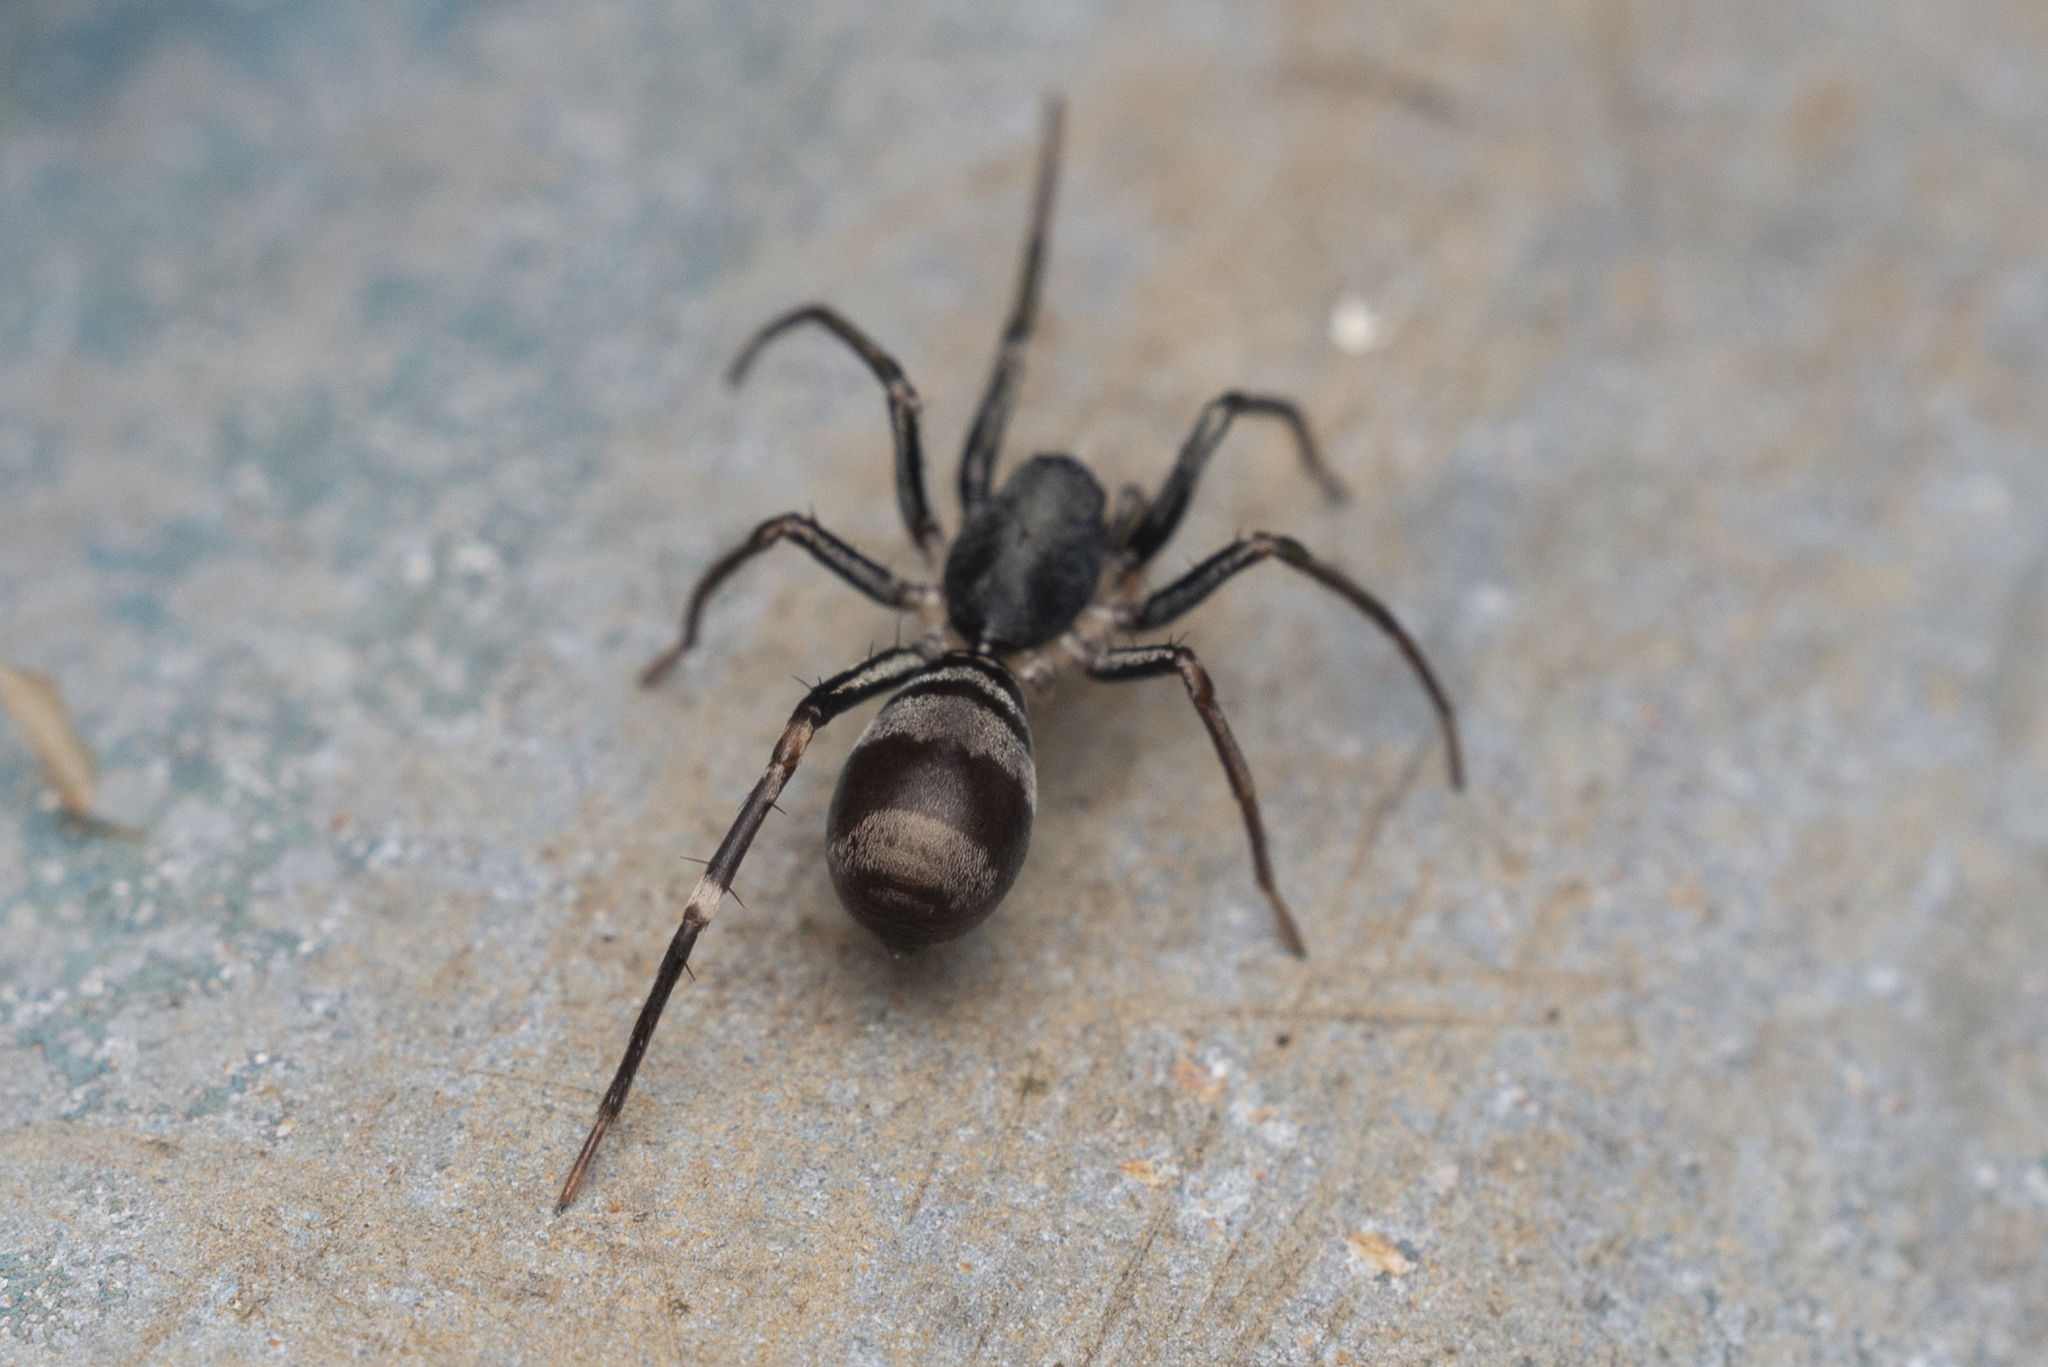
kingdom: Animalia
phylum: Arthropoda
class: Arachnida
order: Araneae
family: Corinnidae
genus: Corinnomma
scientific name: Corinnomma severum
